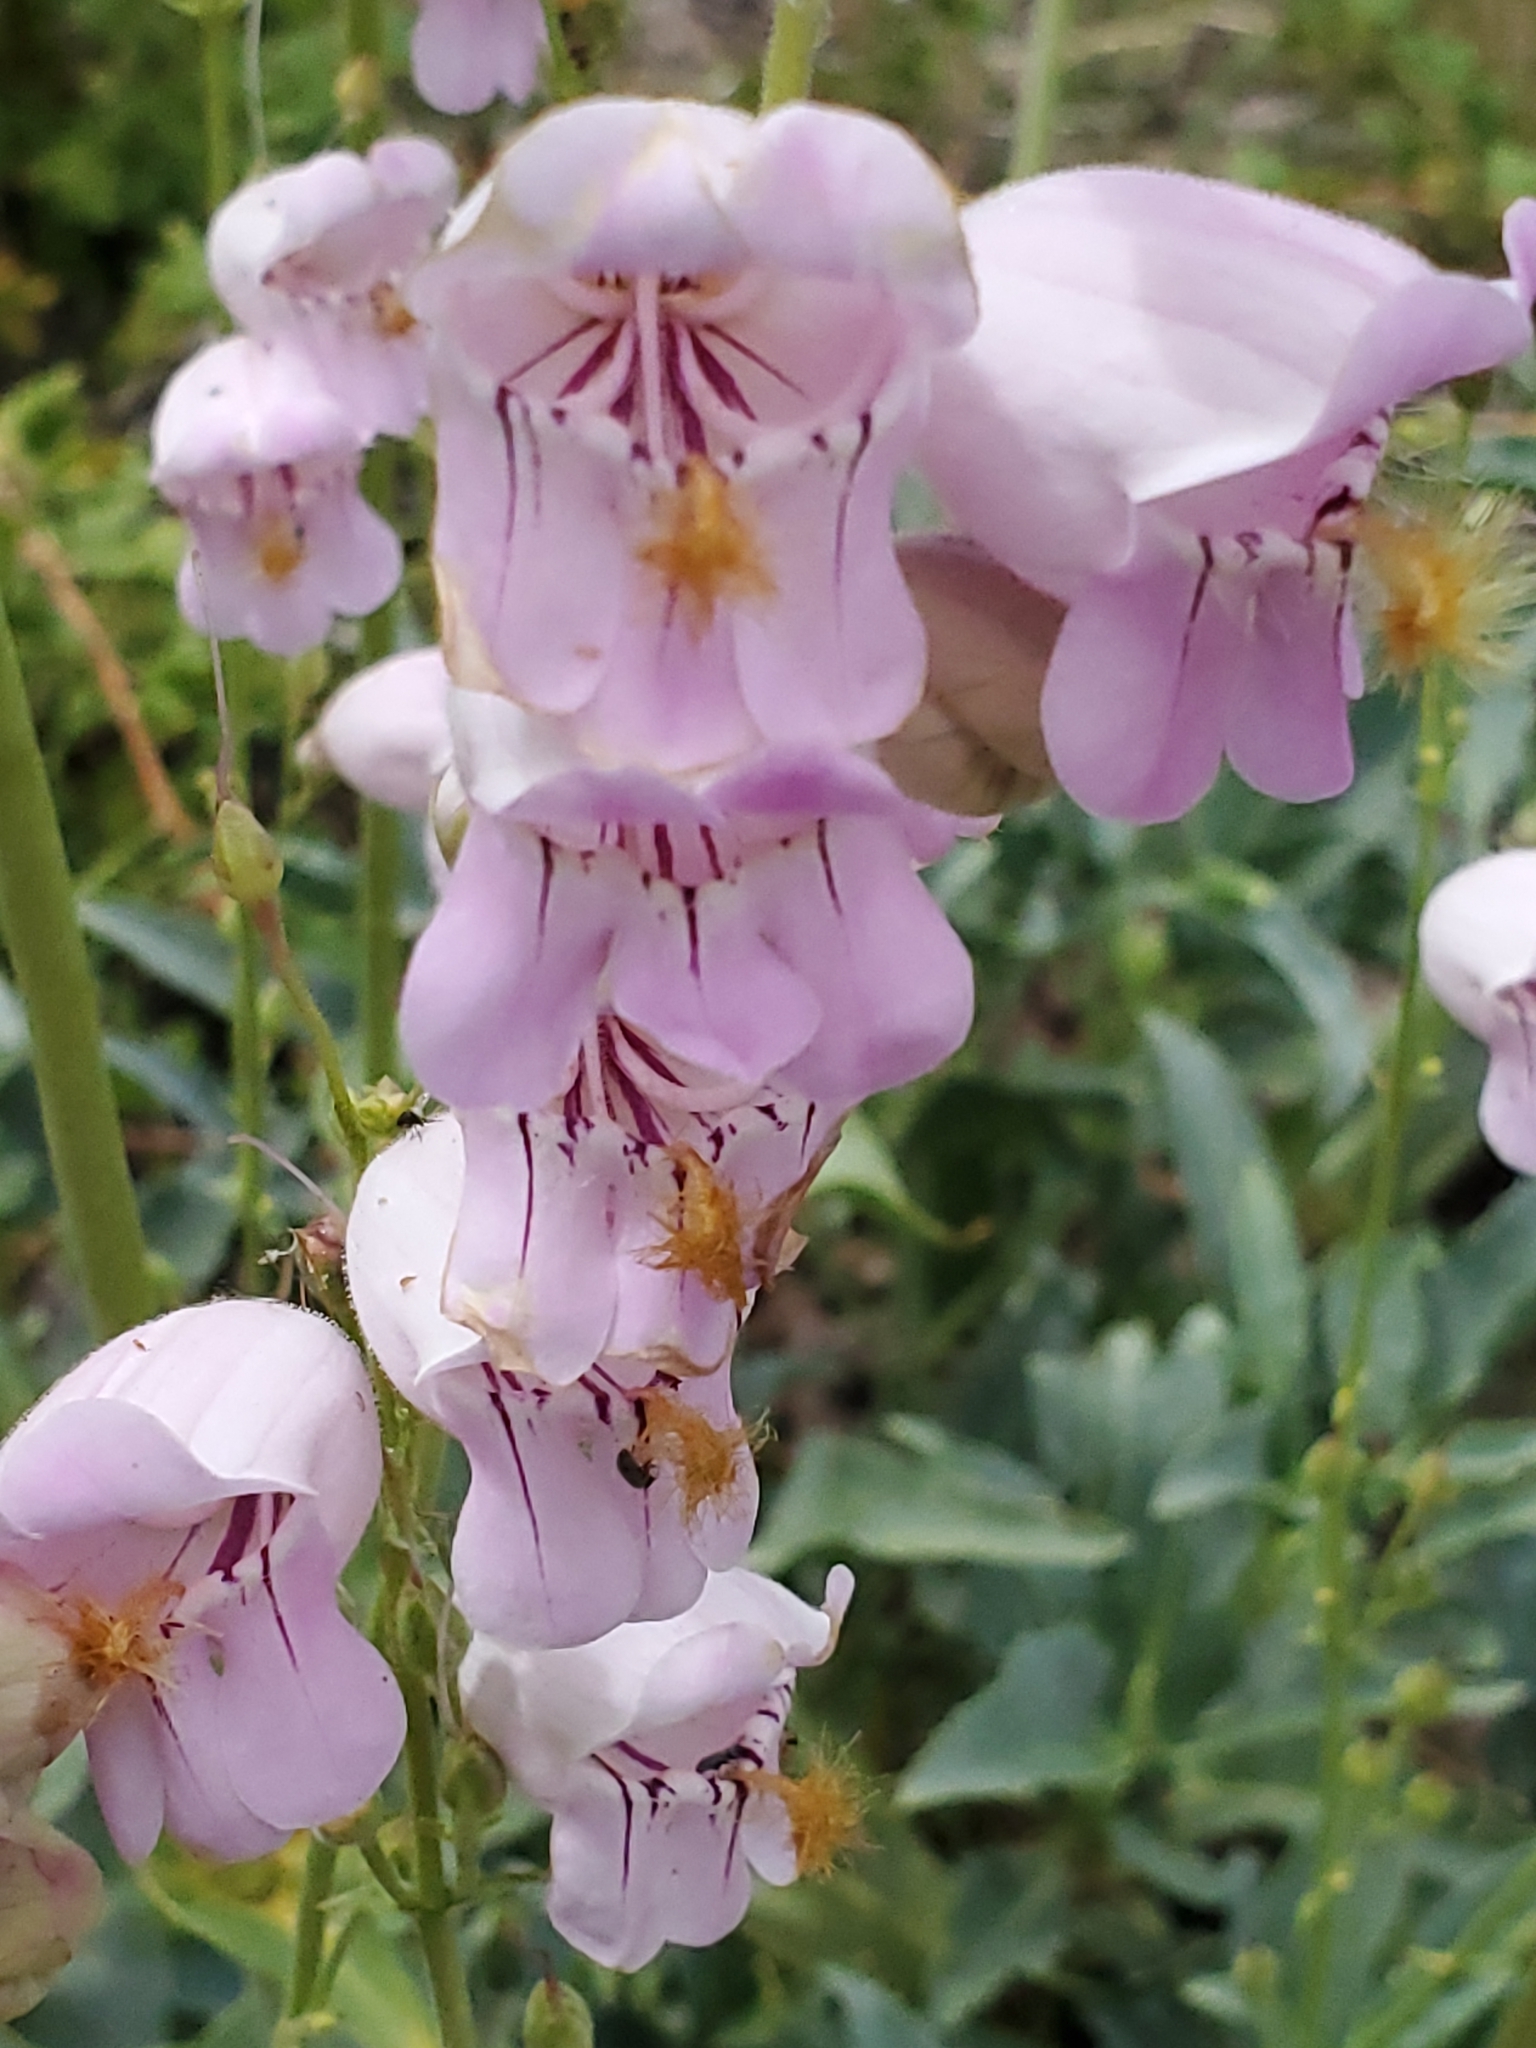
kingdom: Plantae
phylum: Tracheophyta
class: Magnoliopsida
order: Lamiales
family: Plantaginaceae
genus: Penstemon
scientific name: Penstemon palmeri
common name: Palmer penstemon
